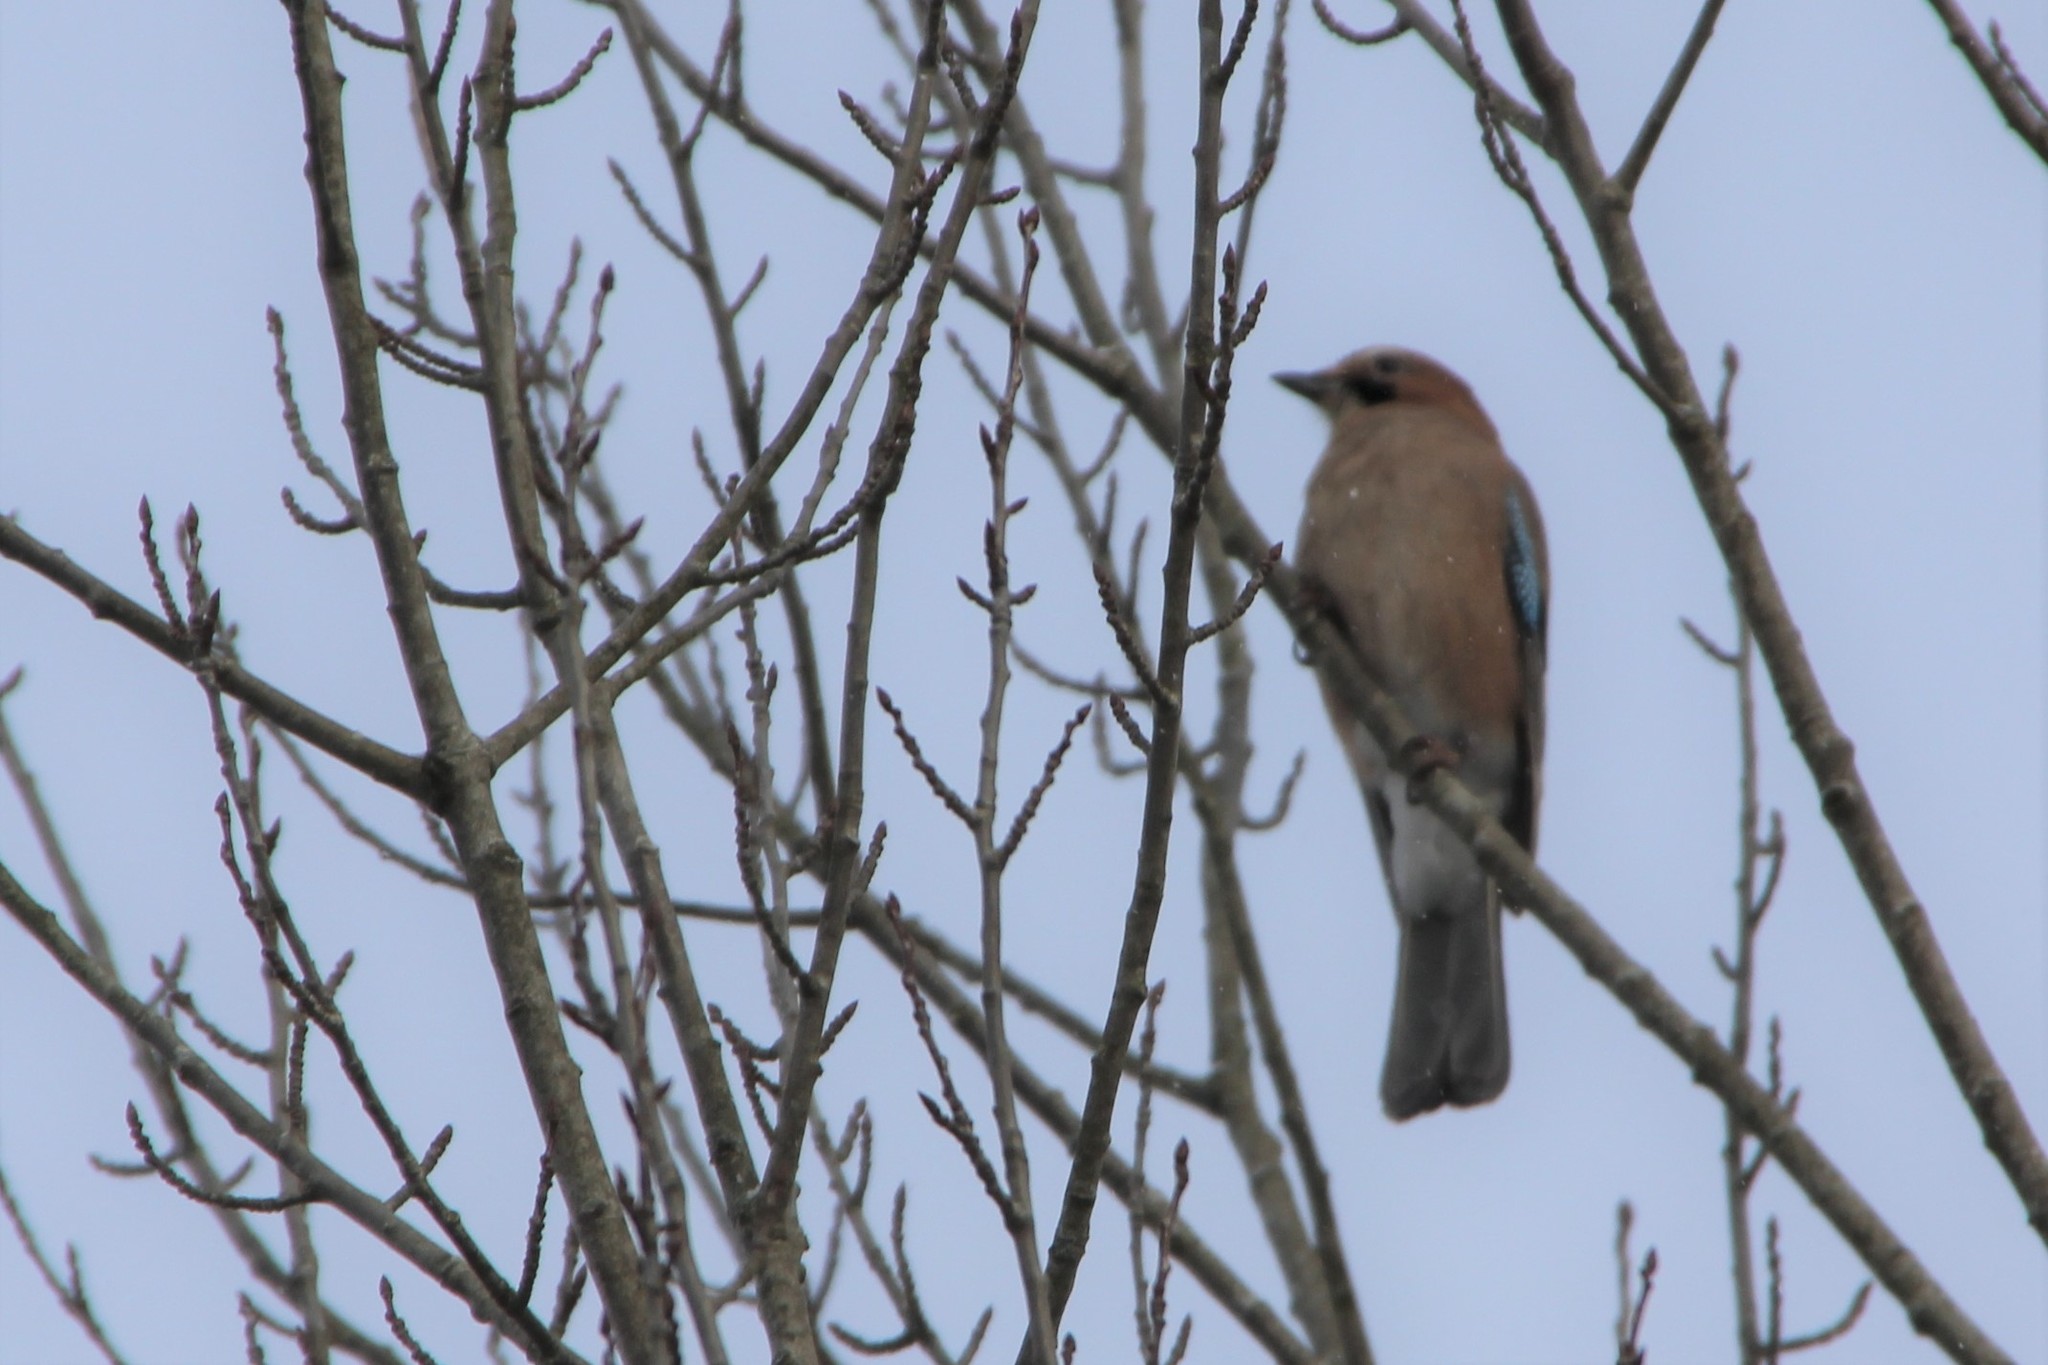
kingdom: Animalia
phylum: Chordata
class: Aves
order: Passeriformes
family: Corvidae
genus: Garrulus
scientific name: Garrulus glandarius
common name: Eurasian jay
